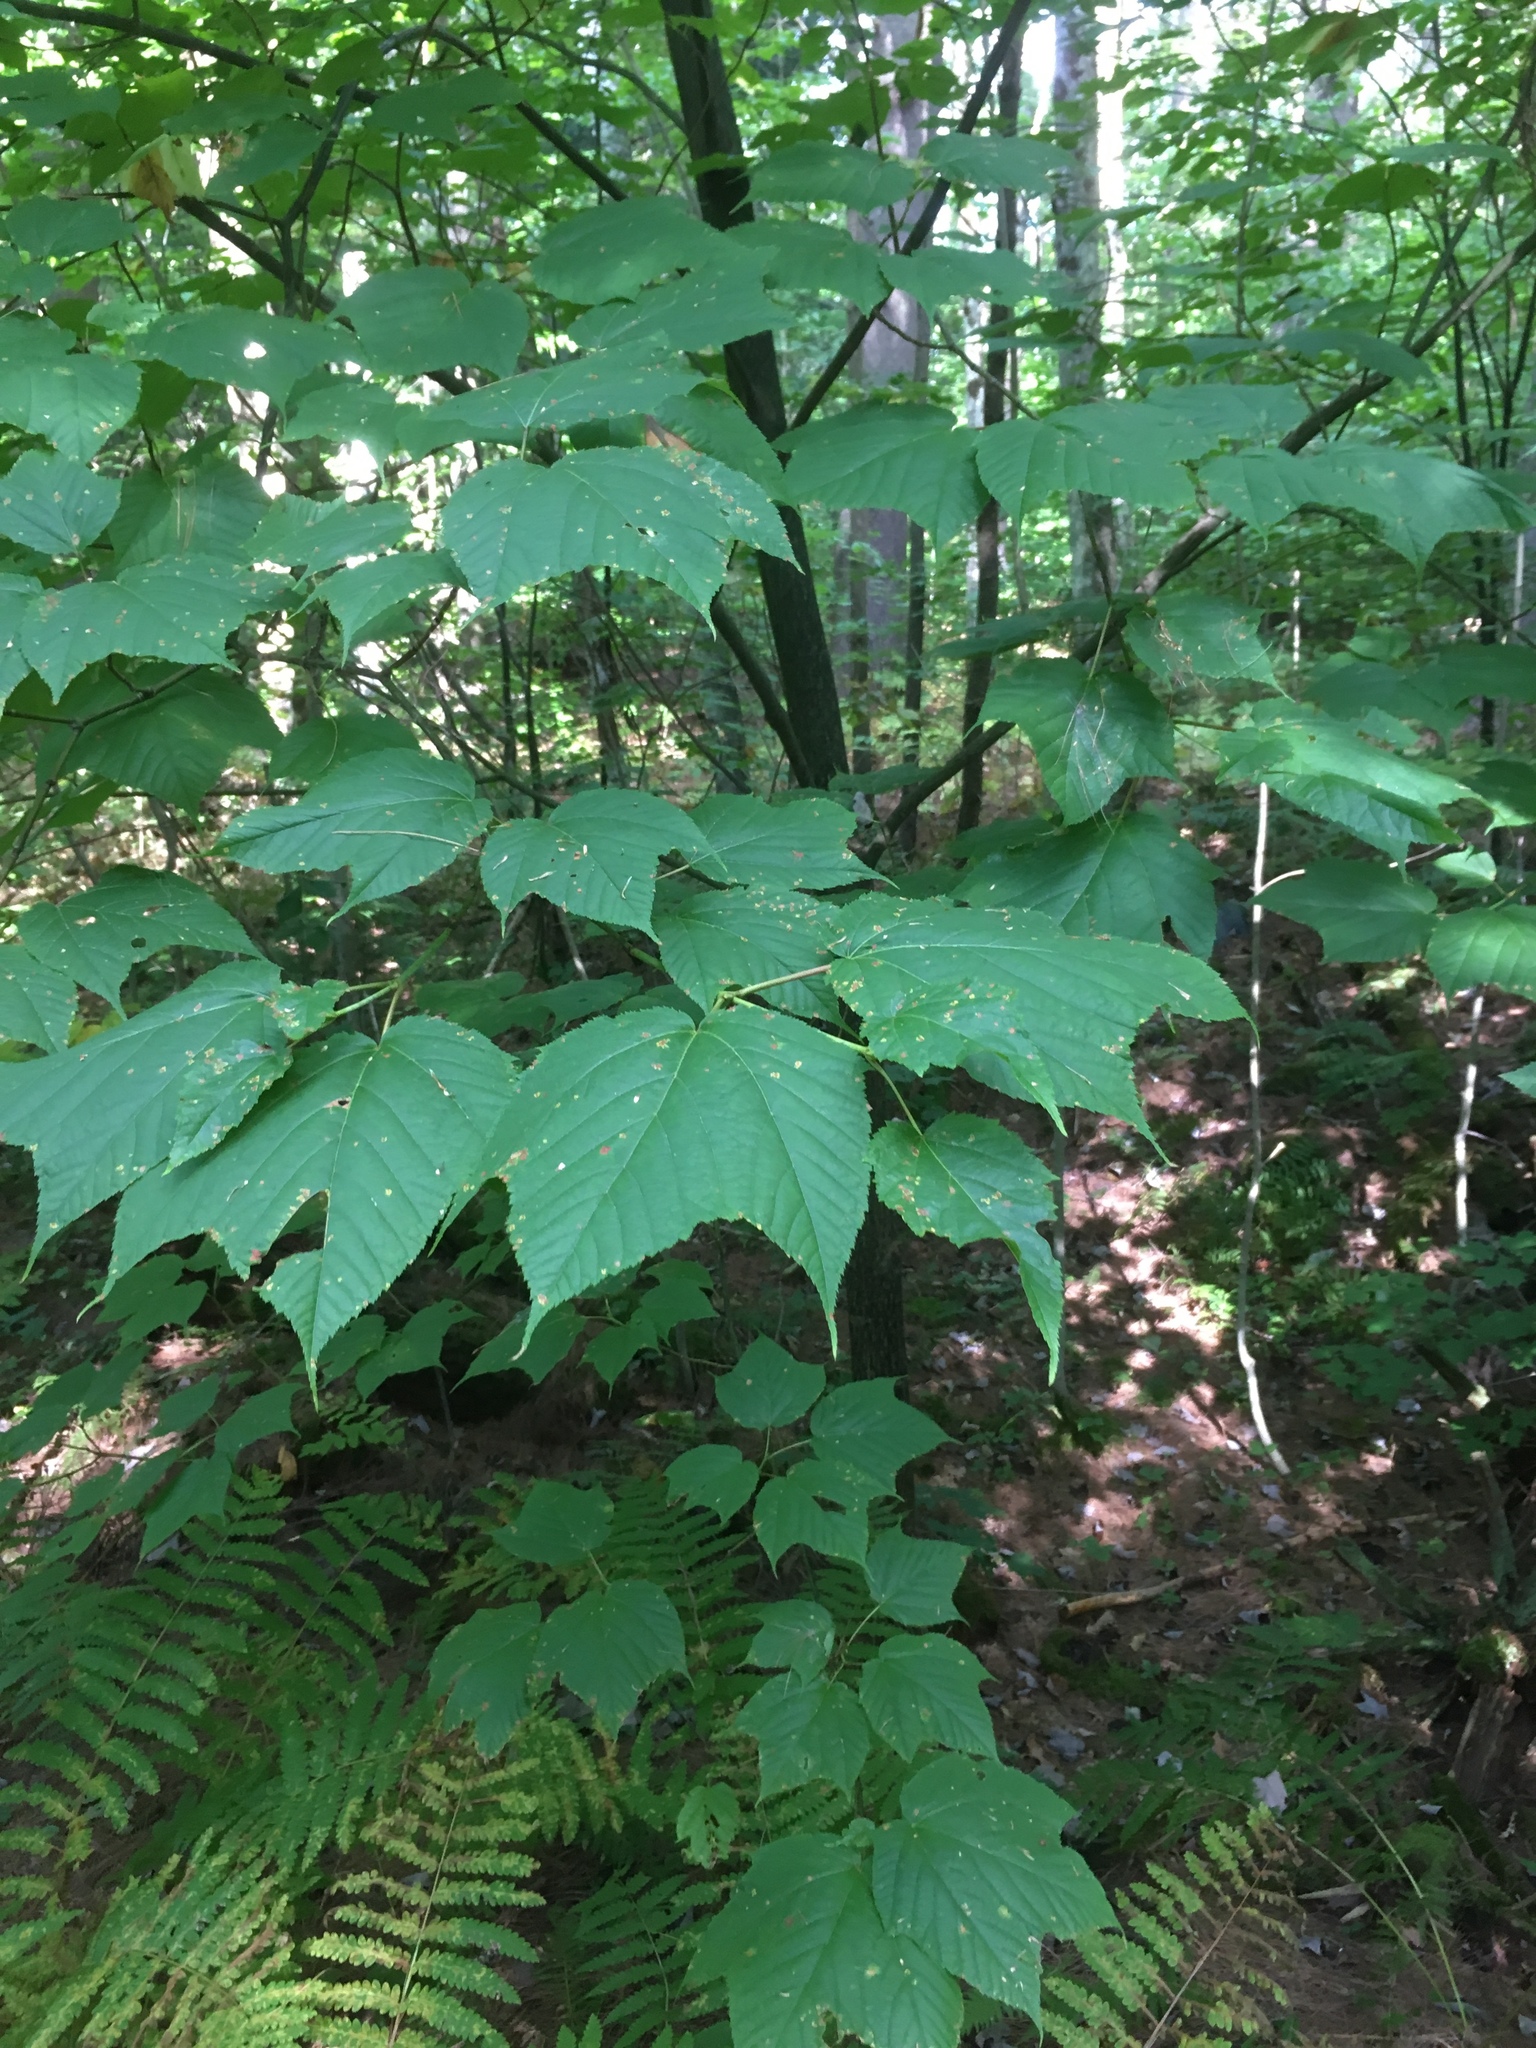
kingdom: Plantae
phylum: Tracheophyta
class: Magnoliopsida
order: Sapindales
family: Sapindaceae
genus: Acer
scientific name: Acer pensylvanicum
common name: Moosewood
